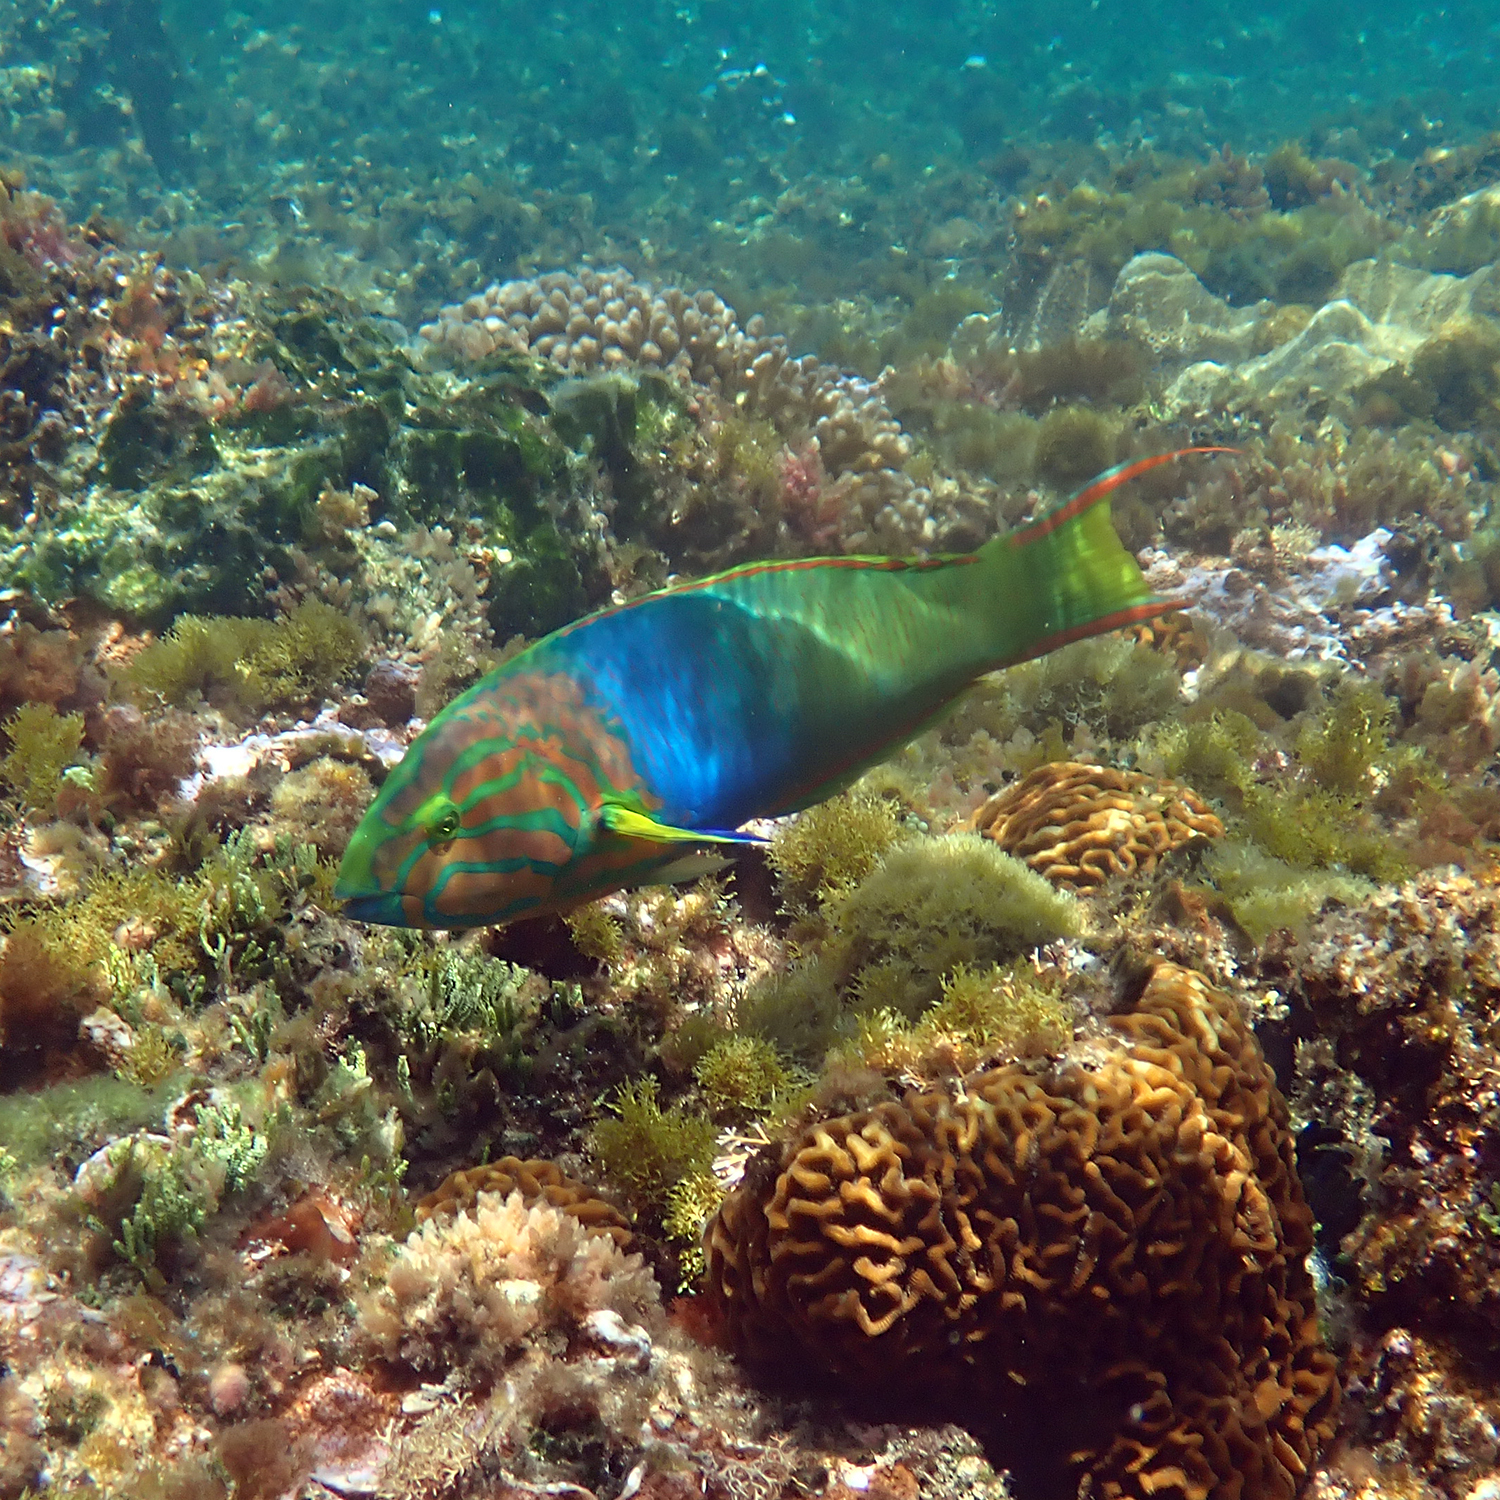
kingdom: Animalia
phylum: Chordata
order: Perciformes
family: Labridae
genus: Thalassoma
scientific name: Thalassoma lutescens
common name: Green moon wrasse
